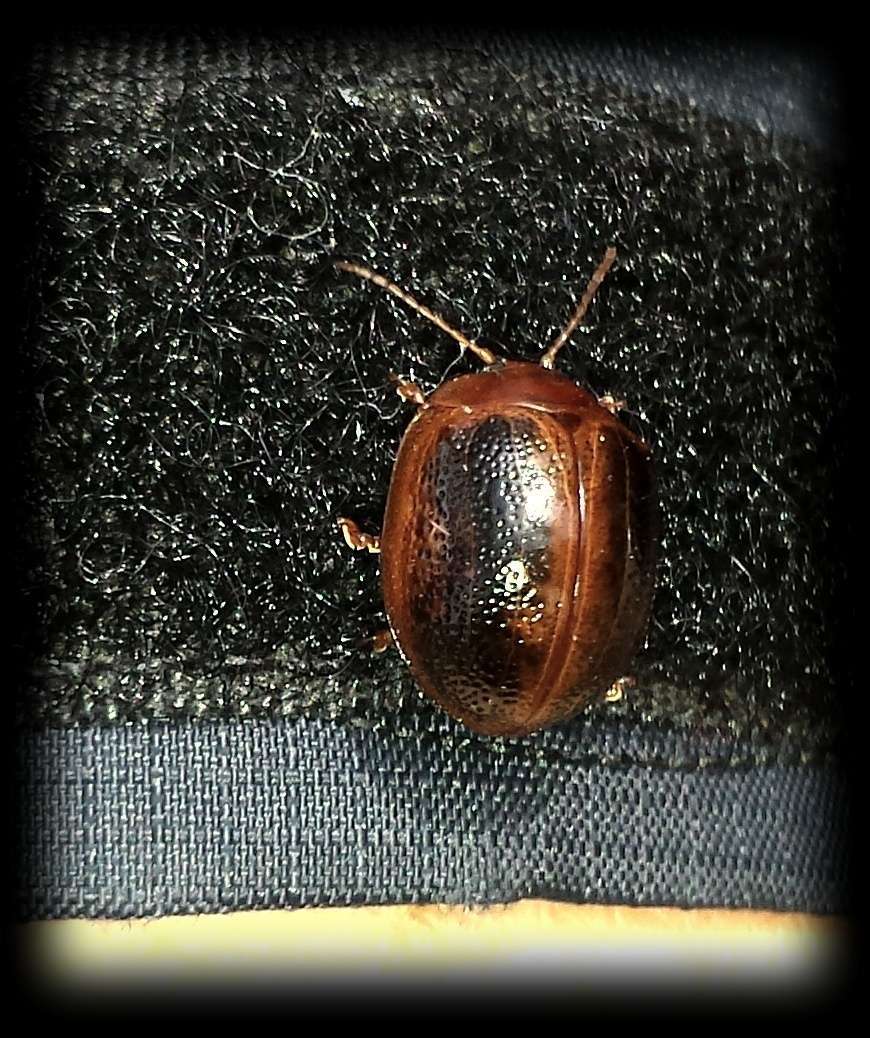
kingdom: Animalia
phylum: Arthropoda
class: Insecta
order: Coleoptera
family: Chrysomelidae
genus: Dicranosterna
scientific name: Dicranosterna
